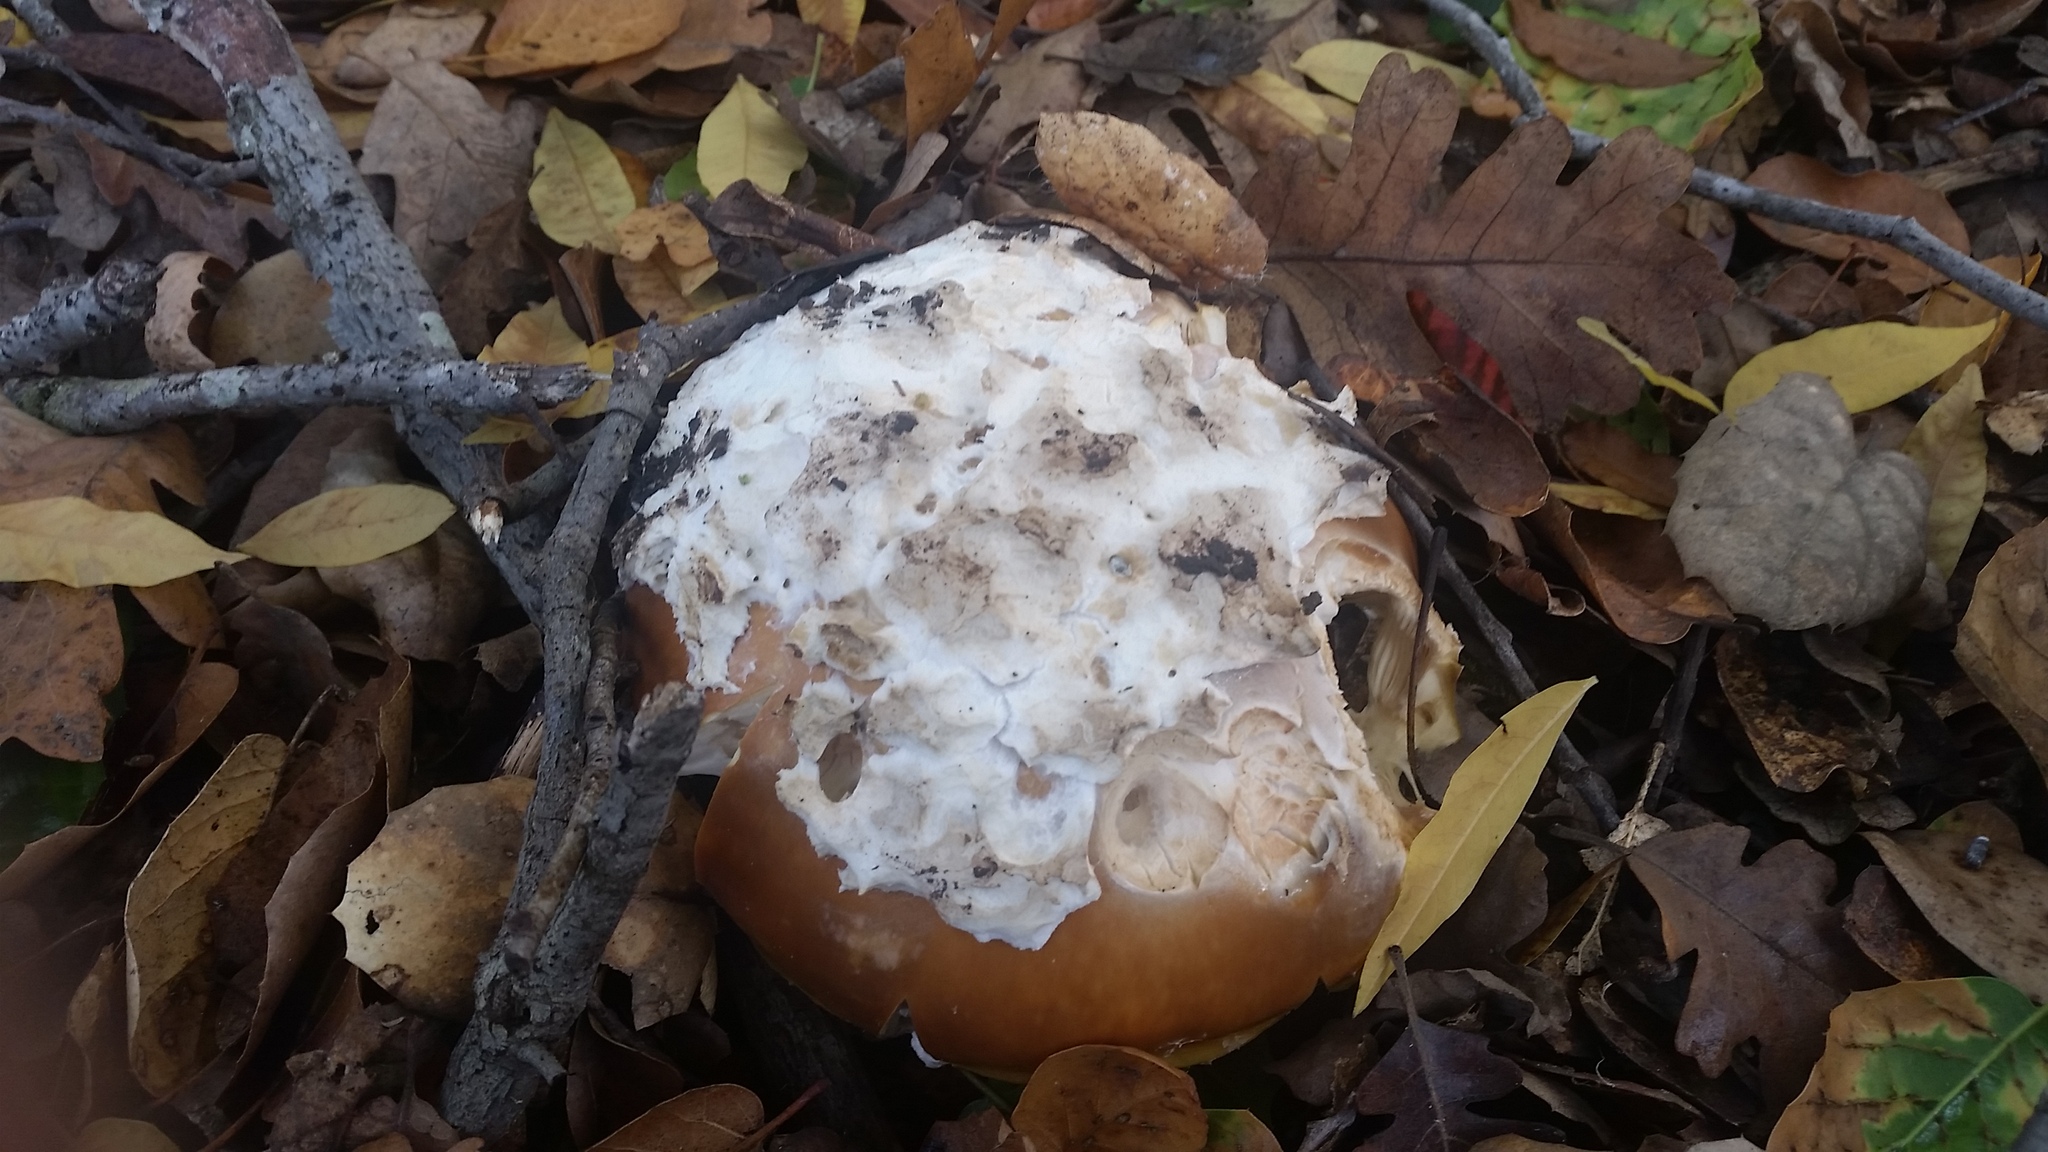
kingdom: Fungi
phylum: Basidiomycota
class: Agaricomycetes
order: Agaricales
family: Amanitaceae
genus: Amanita
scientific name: Amanita calyptroderma
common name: Coccora
